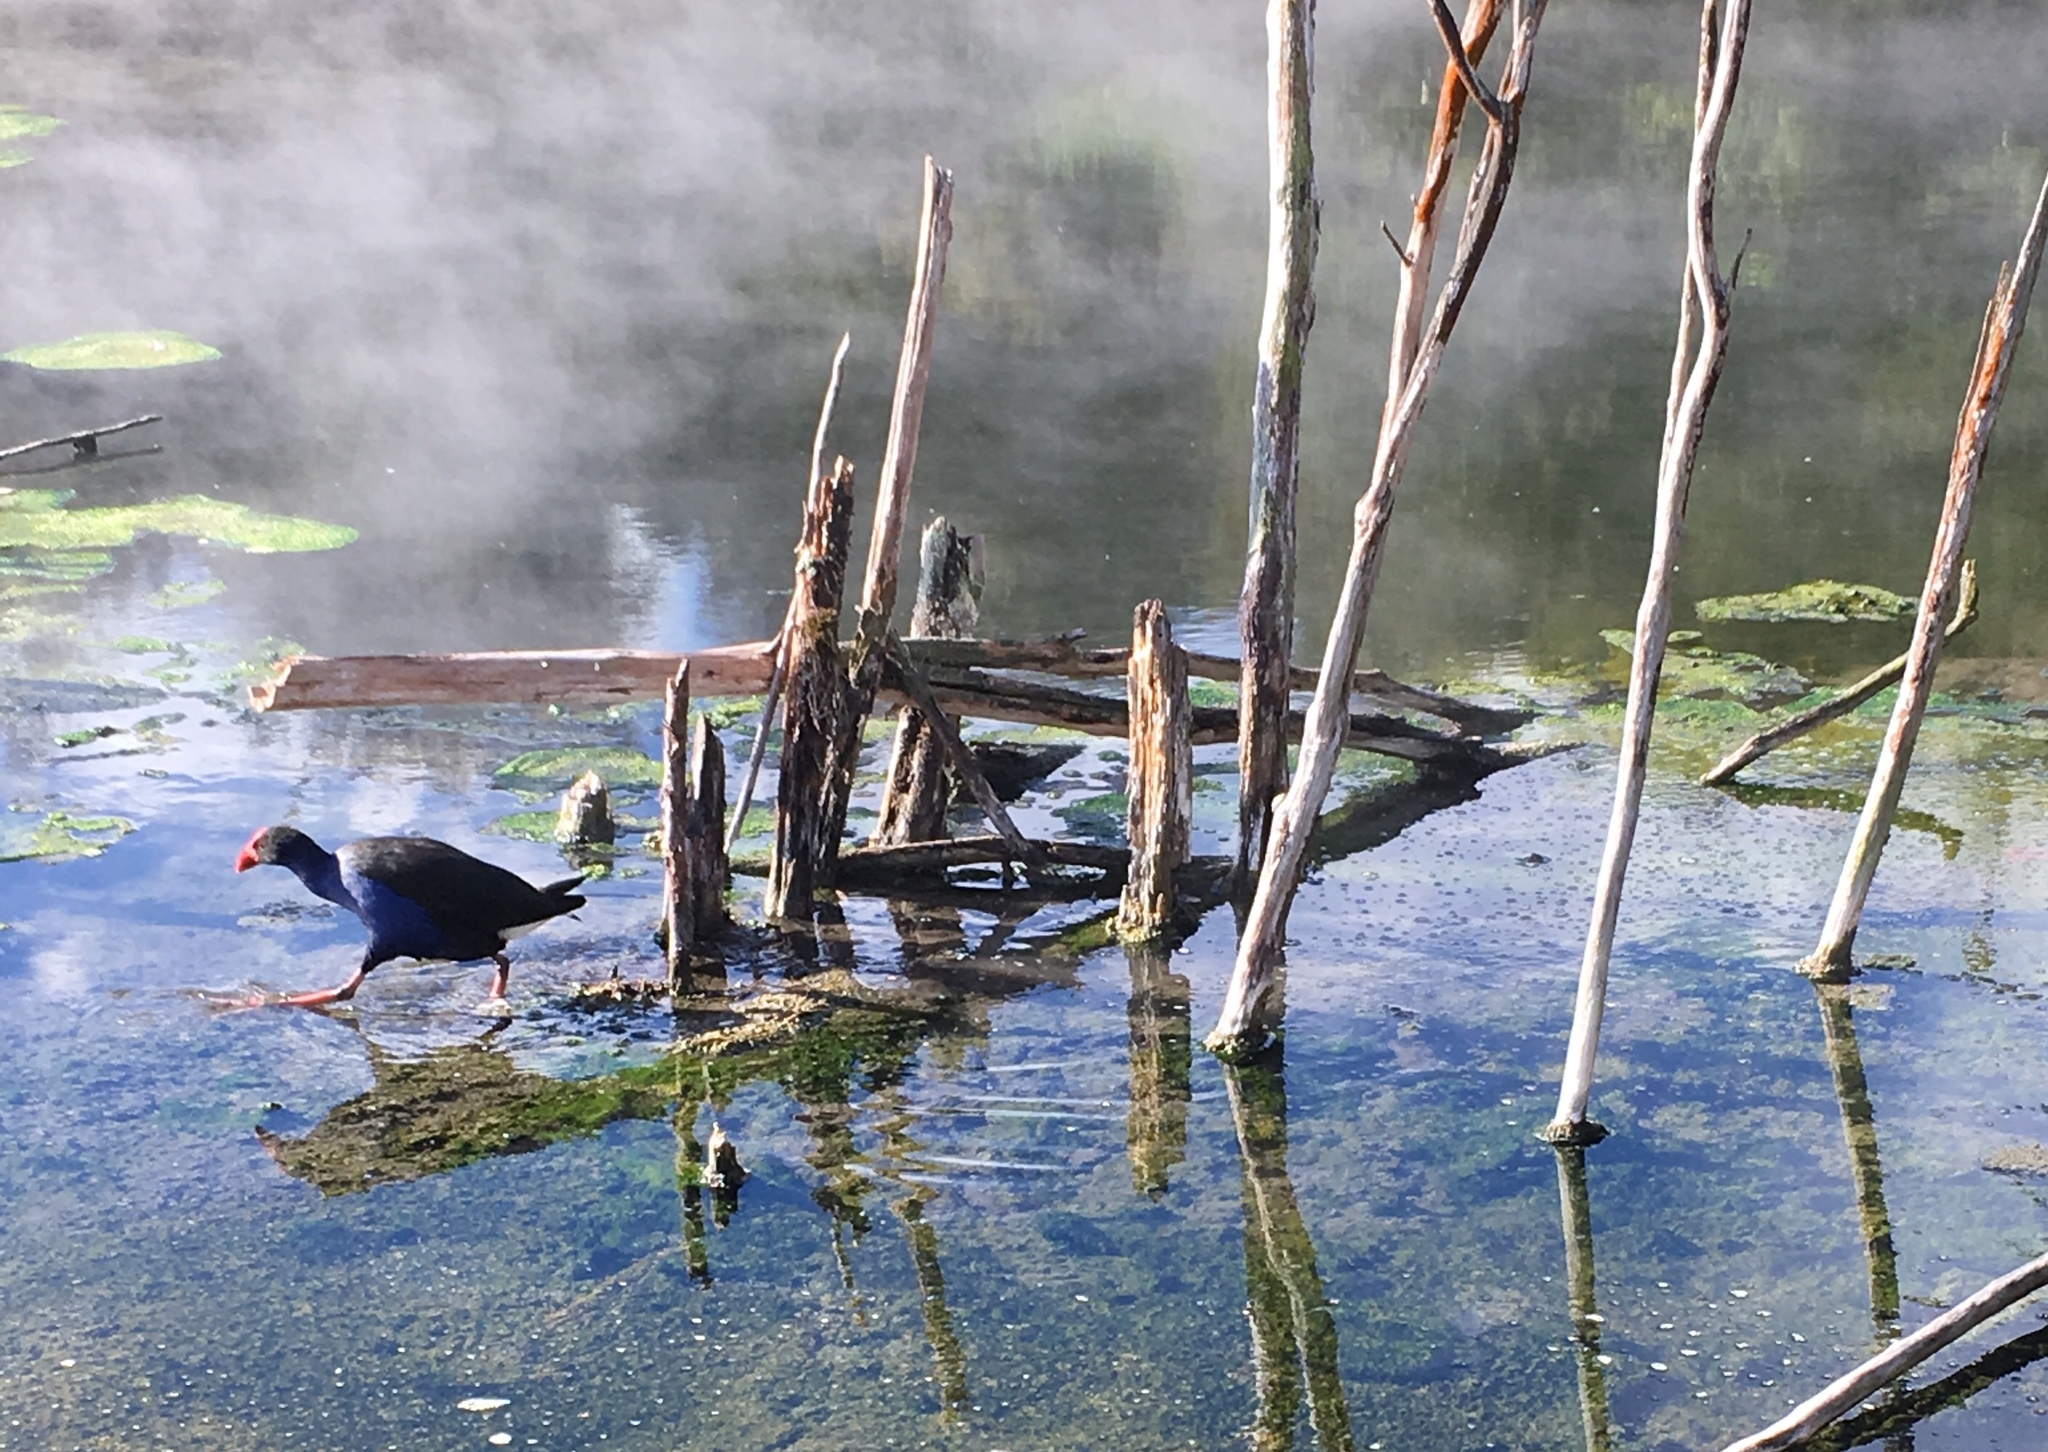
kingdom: Animalia
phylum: Chordata
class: Aves
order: Gruiformes
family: Rallidae
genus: Porphyrio
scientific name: Porphyrio melanotus
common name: Australasian swamphen
